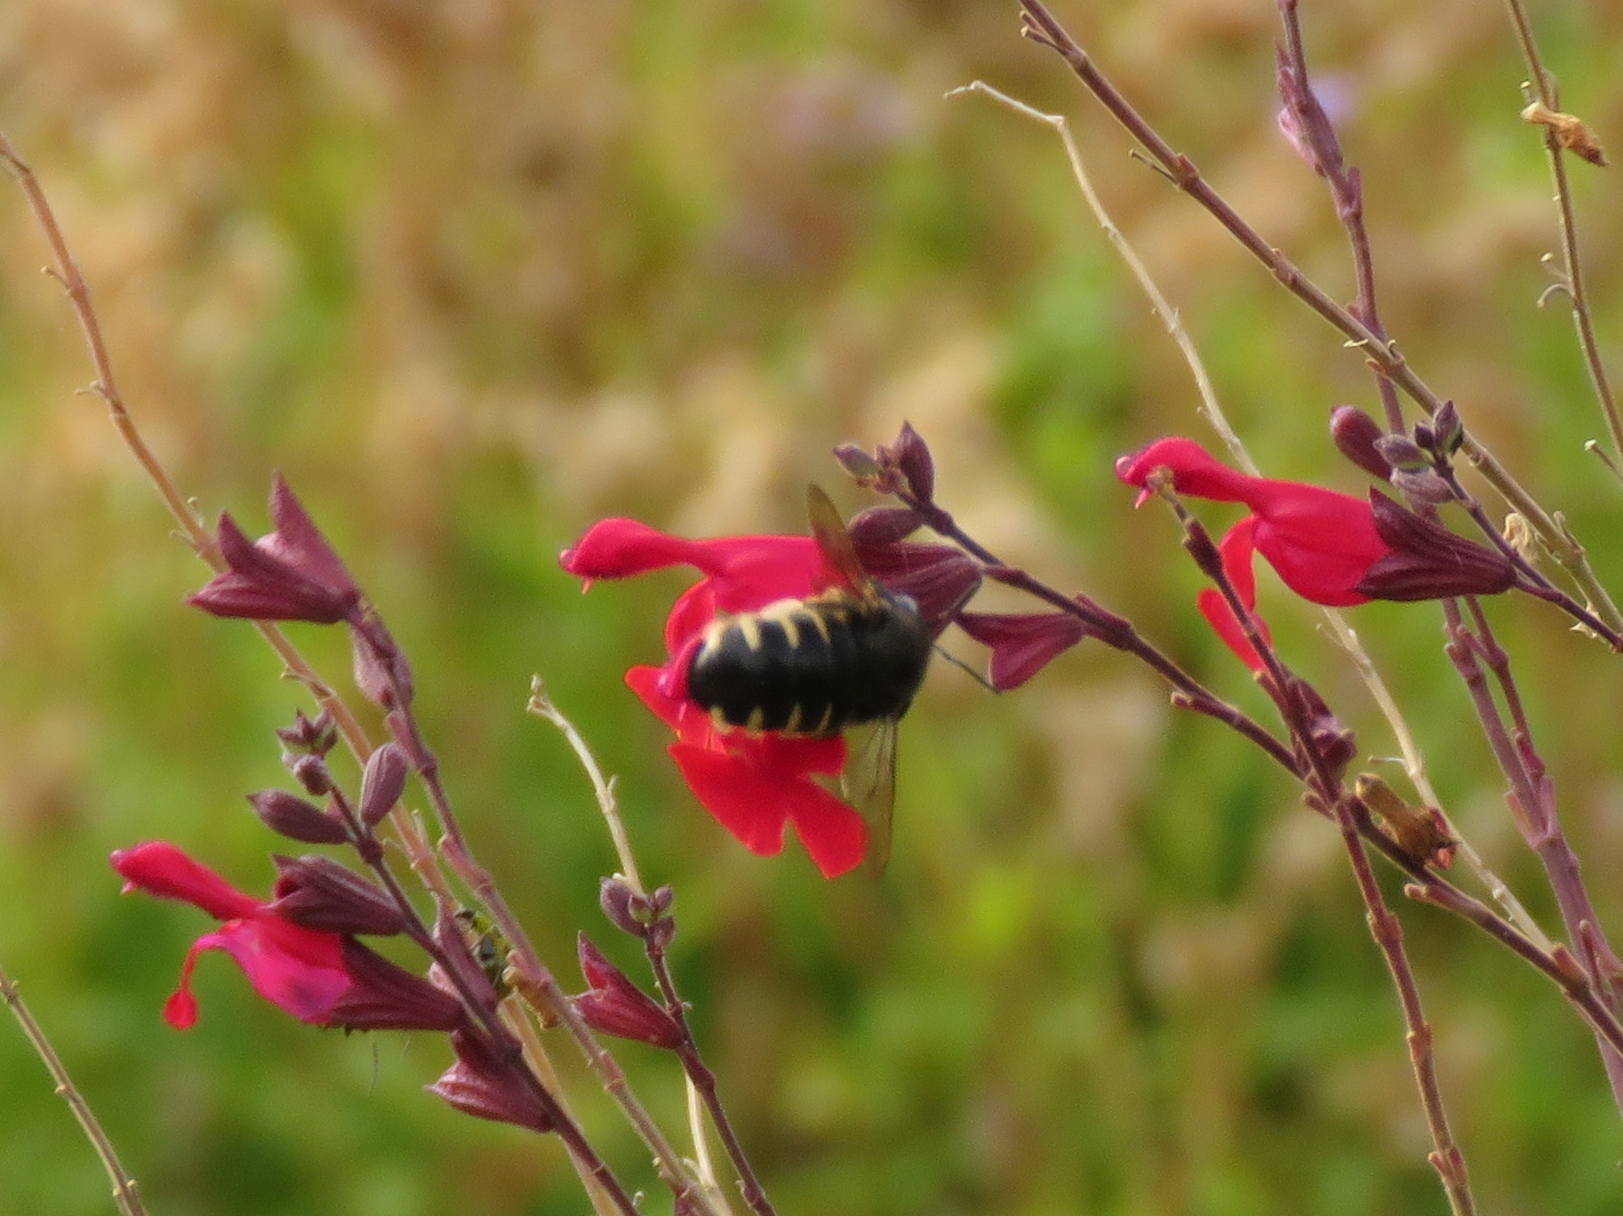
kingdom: Animalia
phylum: Arthropoda
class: Insecta
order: Hymenoptera
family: Apidae
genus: Xylocopa
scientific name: Xylocopa tabaniformis
